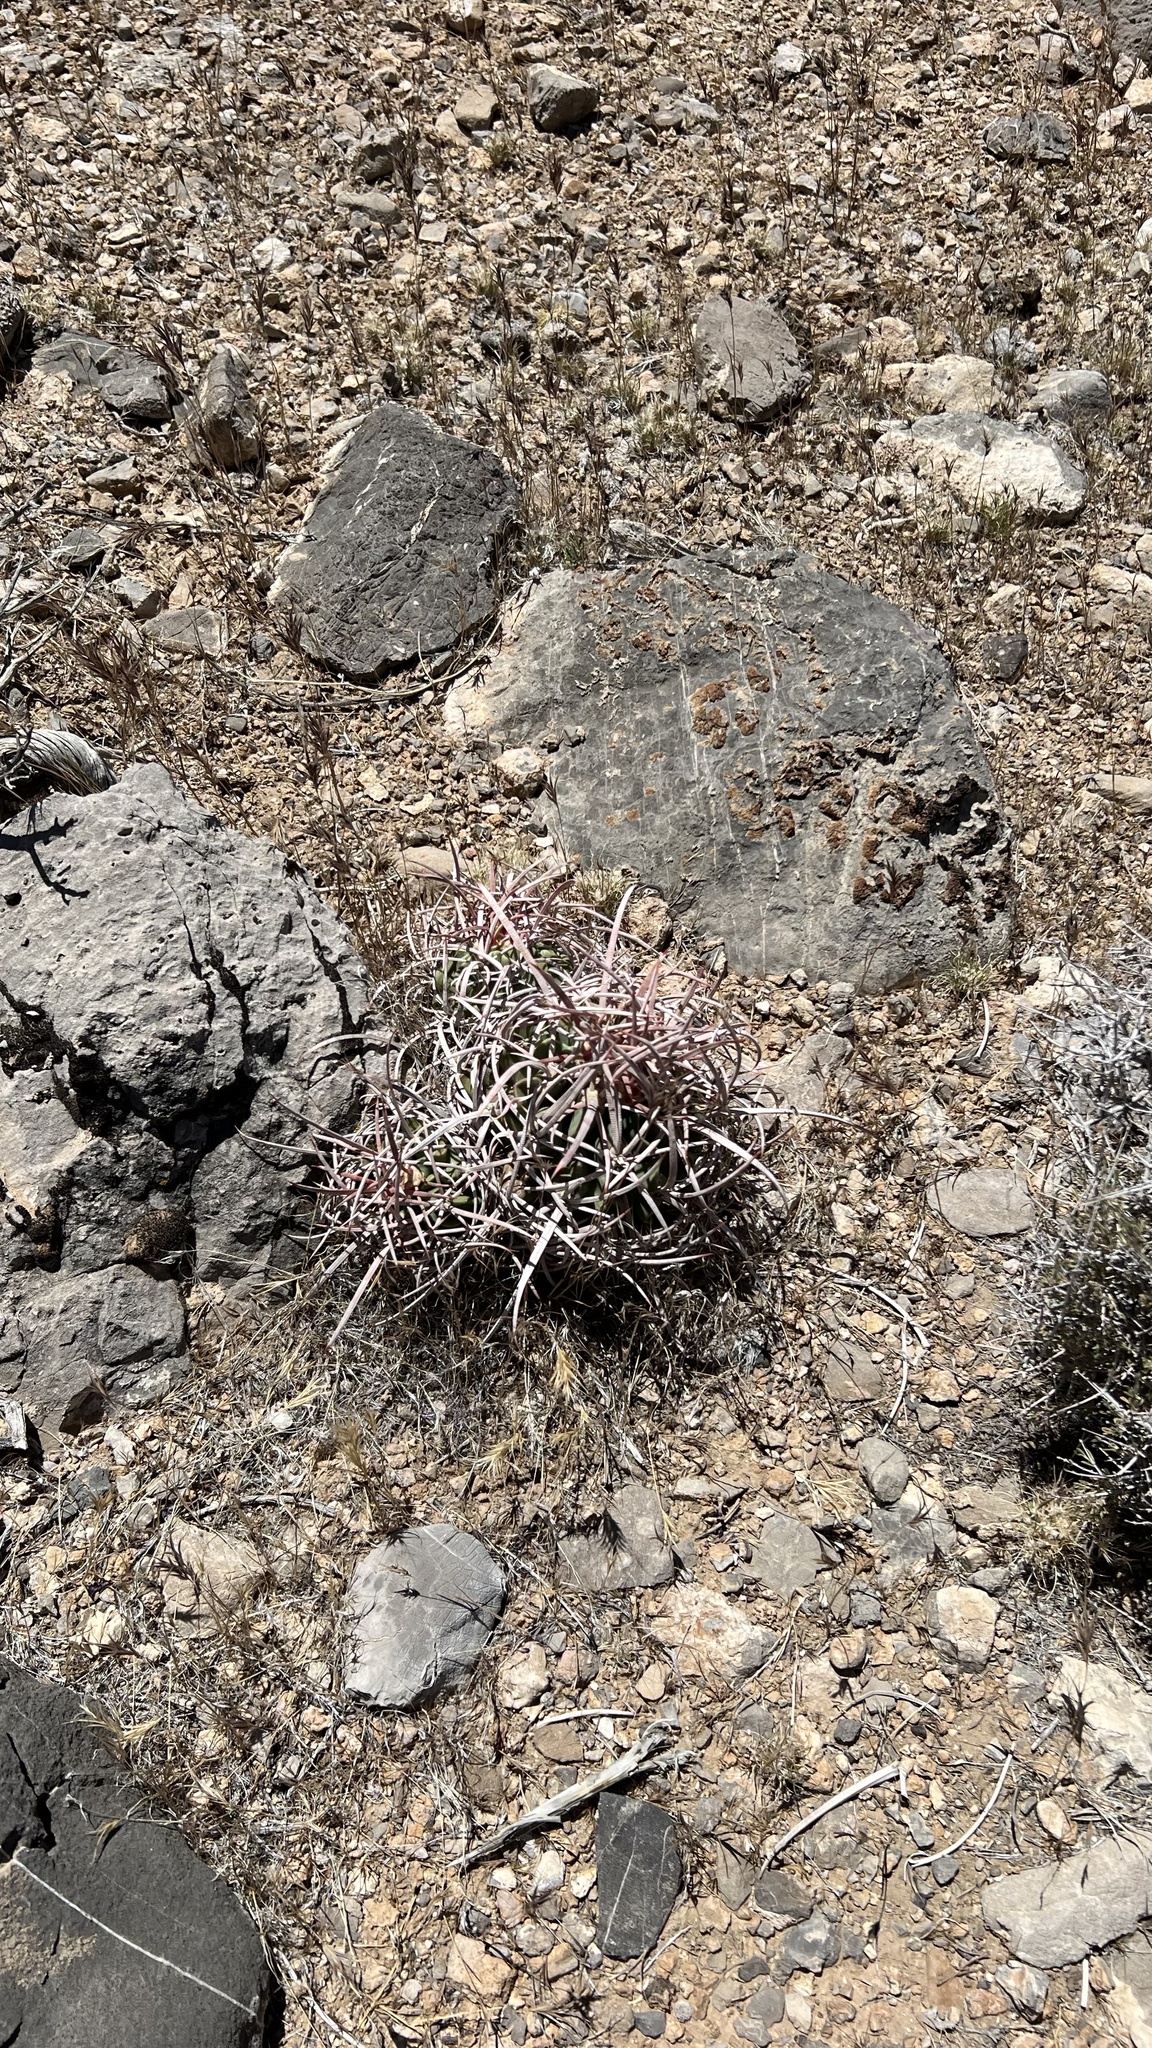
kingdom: Plantae
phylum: Tracheophyta
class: Magnoliopsida
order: Caryophyllales
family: Cactaceae
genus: Echinocactus
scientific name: Echinocactus polycephalus
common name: Cottontop cactus
